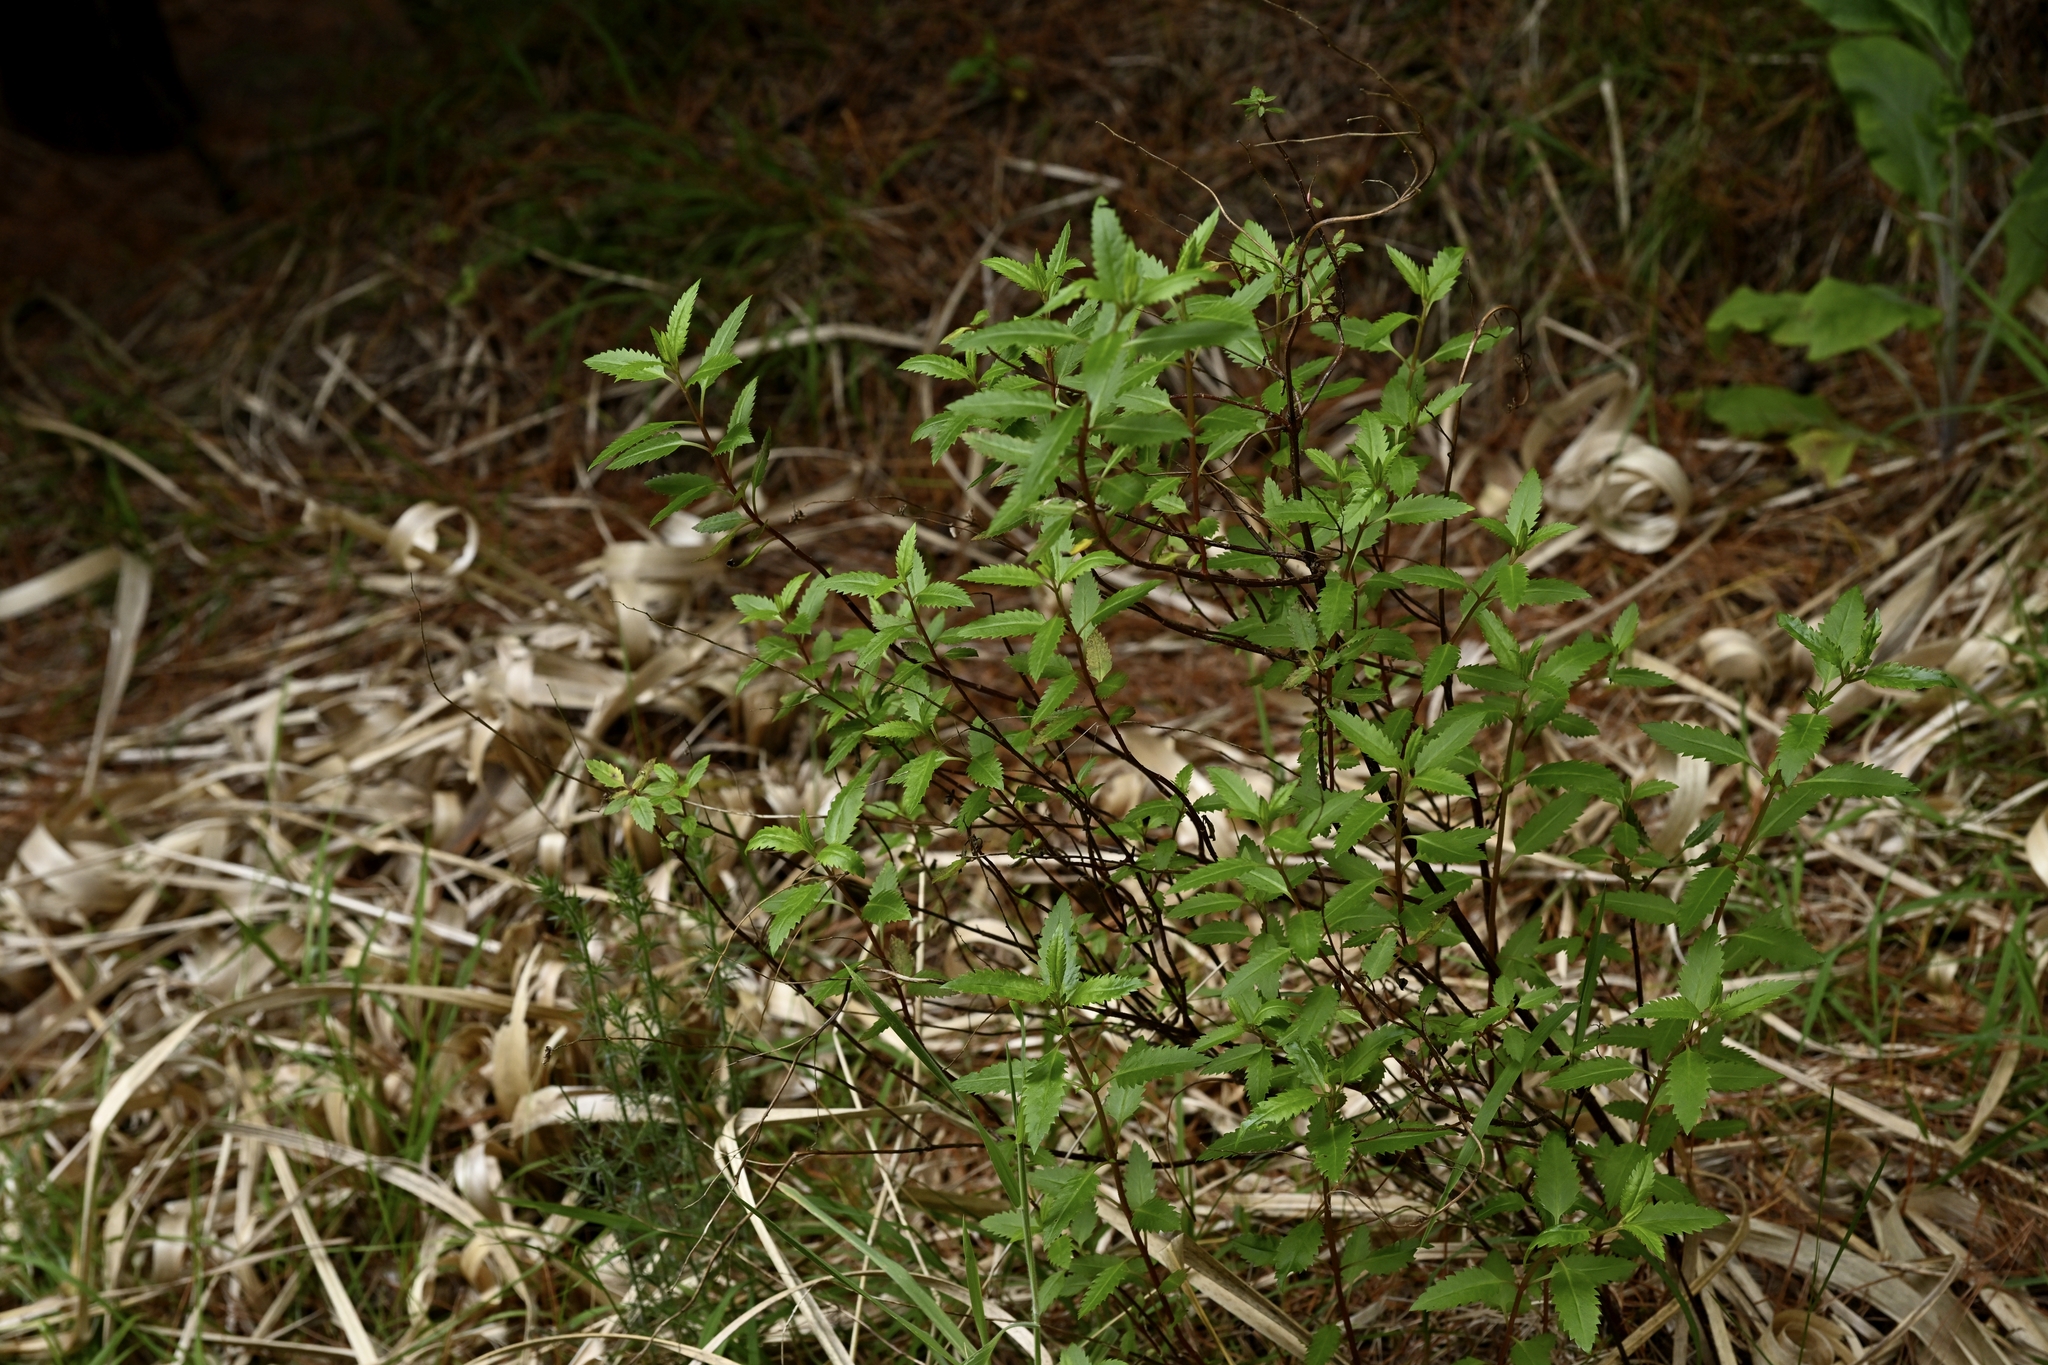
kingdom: Plantae
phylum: Tracheophyta
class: Magnoliopsida
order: Saxifragales
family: Haloragaceae
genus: Haloragis
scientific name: Haloragis erecta
